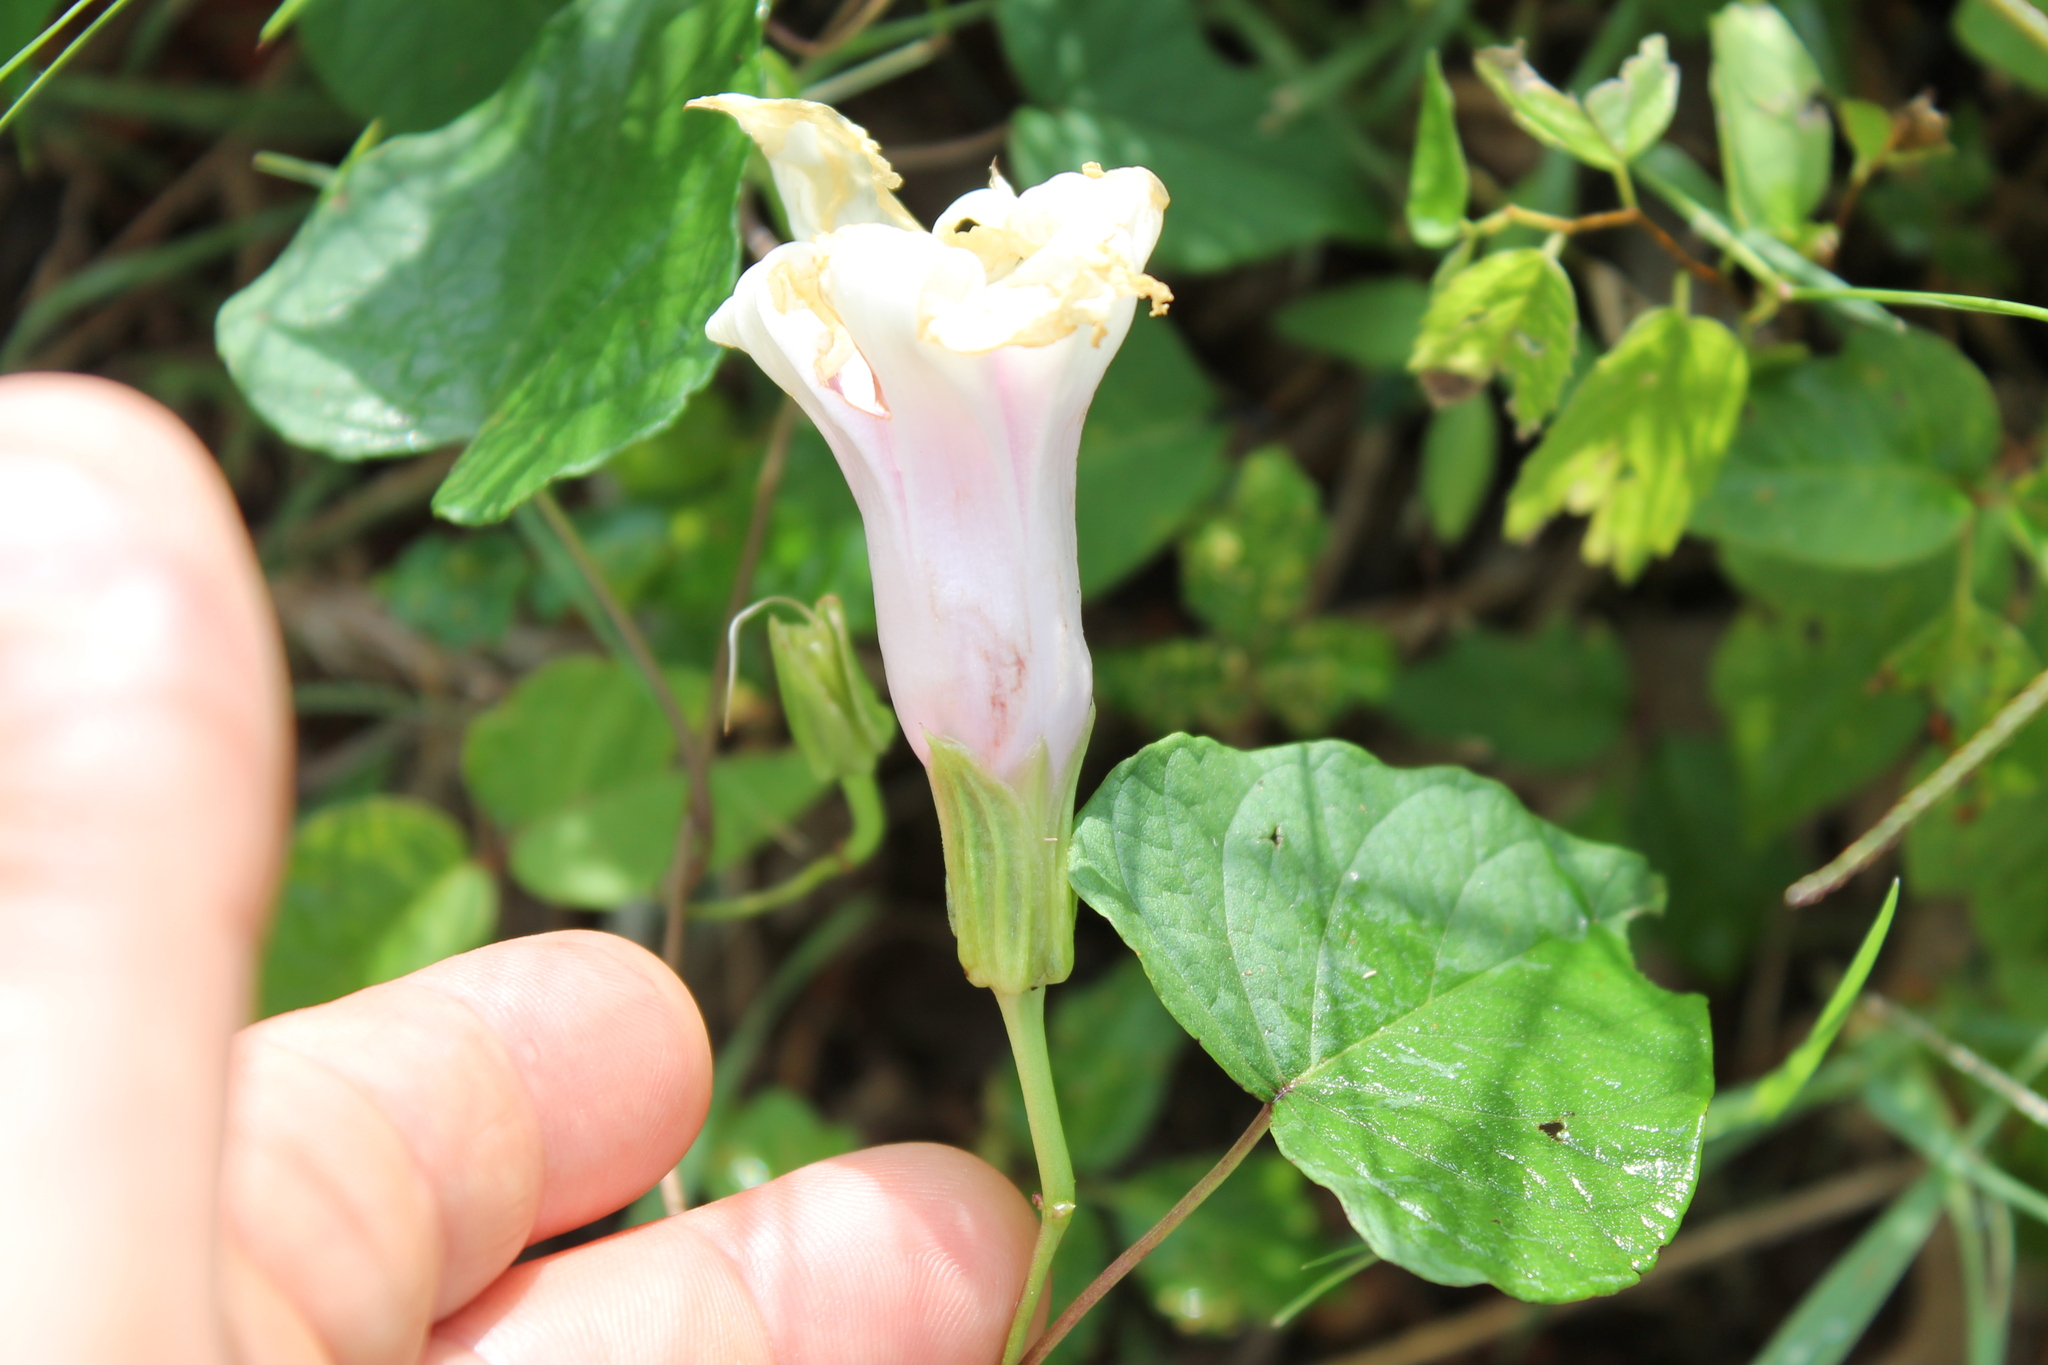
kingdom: Plantae
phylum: Tracheophyta
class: Magnoliopsida
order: Solanales
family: Convolvulaceae
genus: Ipomoea
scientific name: Ipomoea pandurata
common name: Man-of-the-earth
